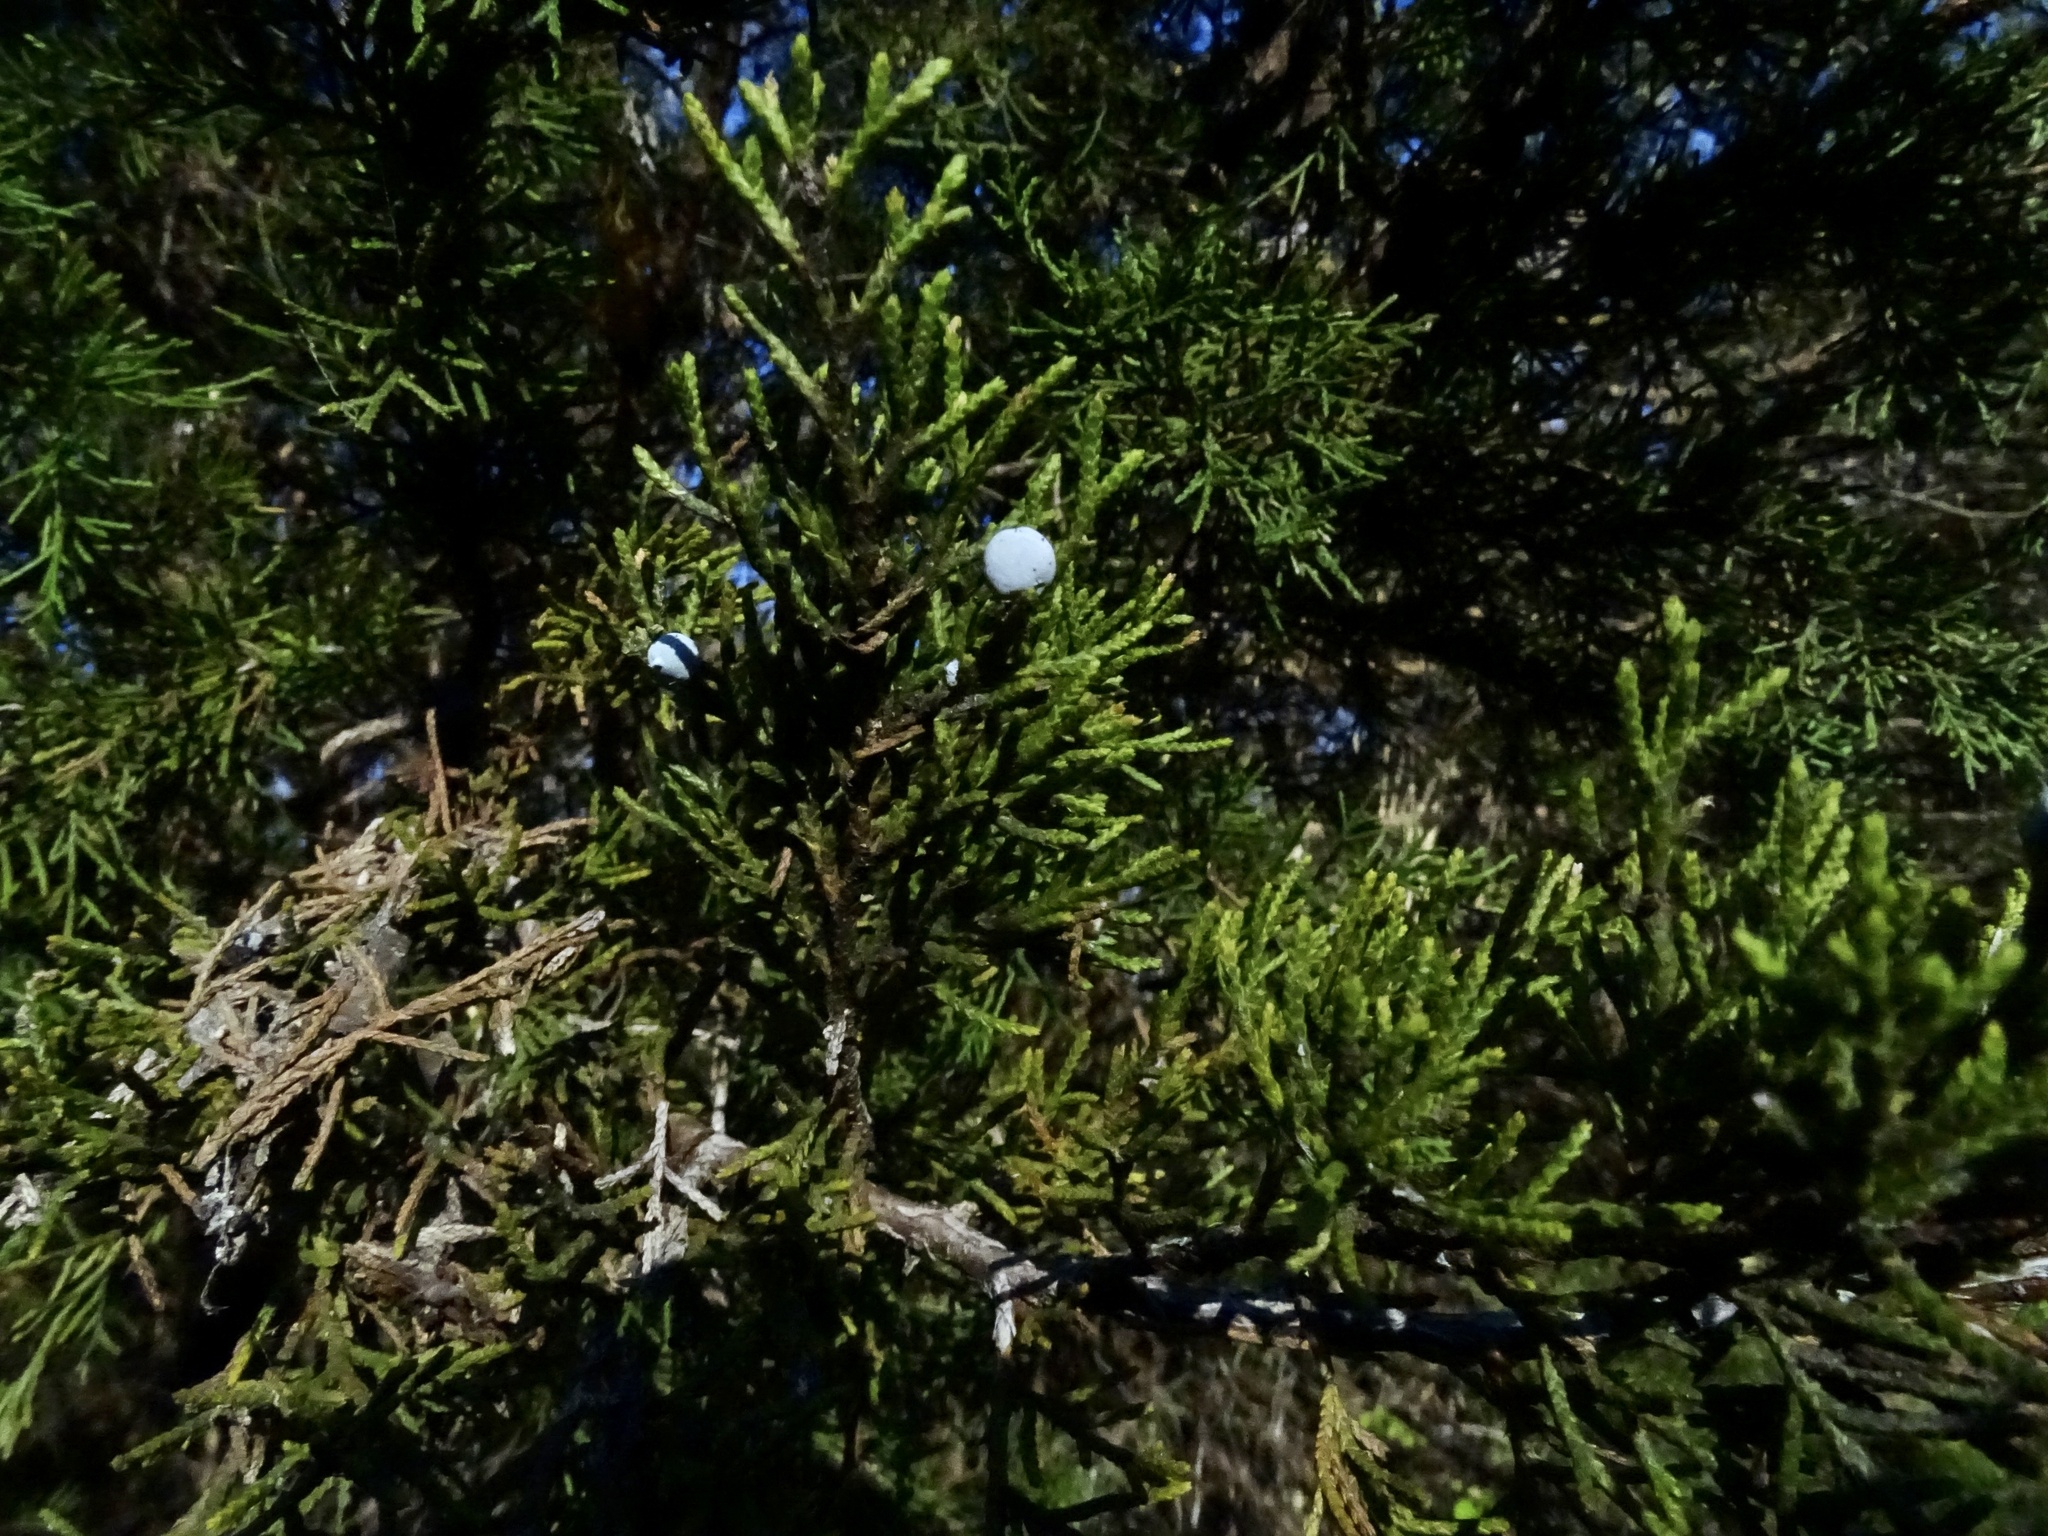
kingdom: Plantae
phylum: Tracheophyta
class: Pinopsida
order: Pinales
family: Cupressaceae
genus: Juniperus
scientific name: Juniperus virginiana
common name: Red juniper
